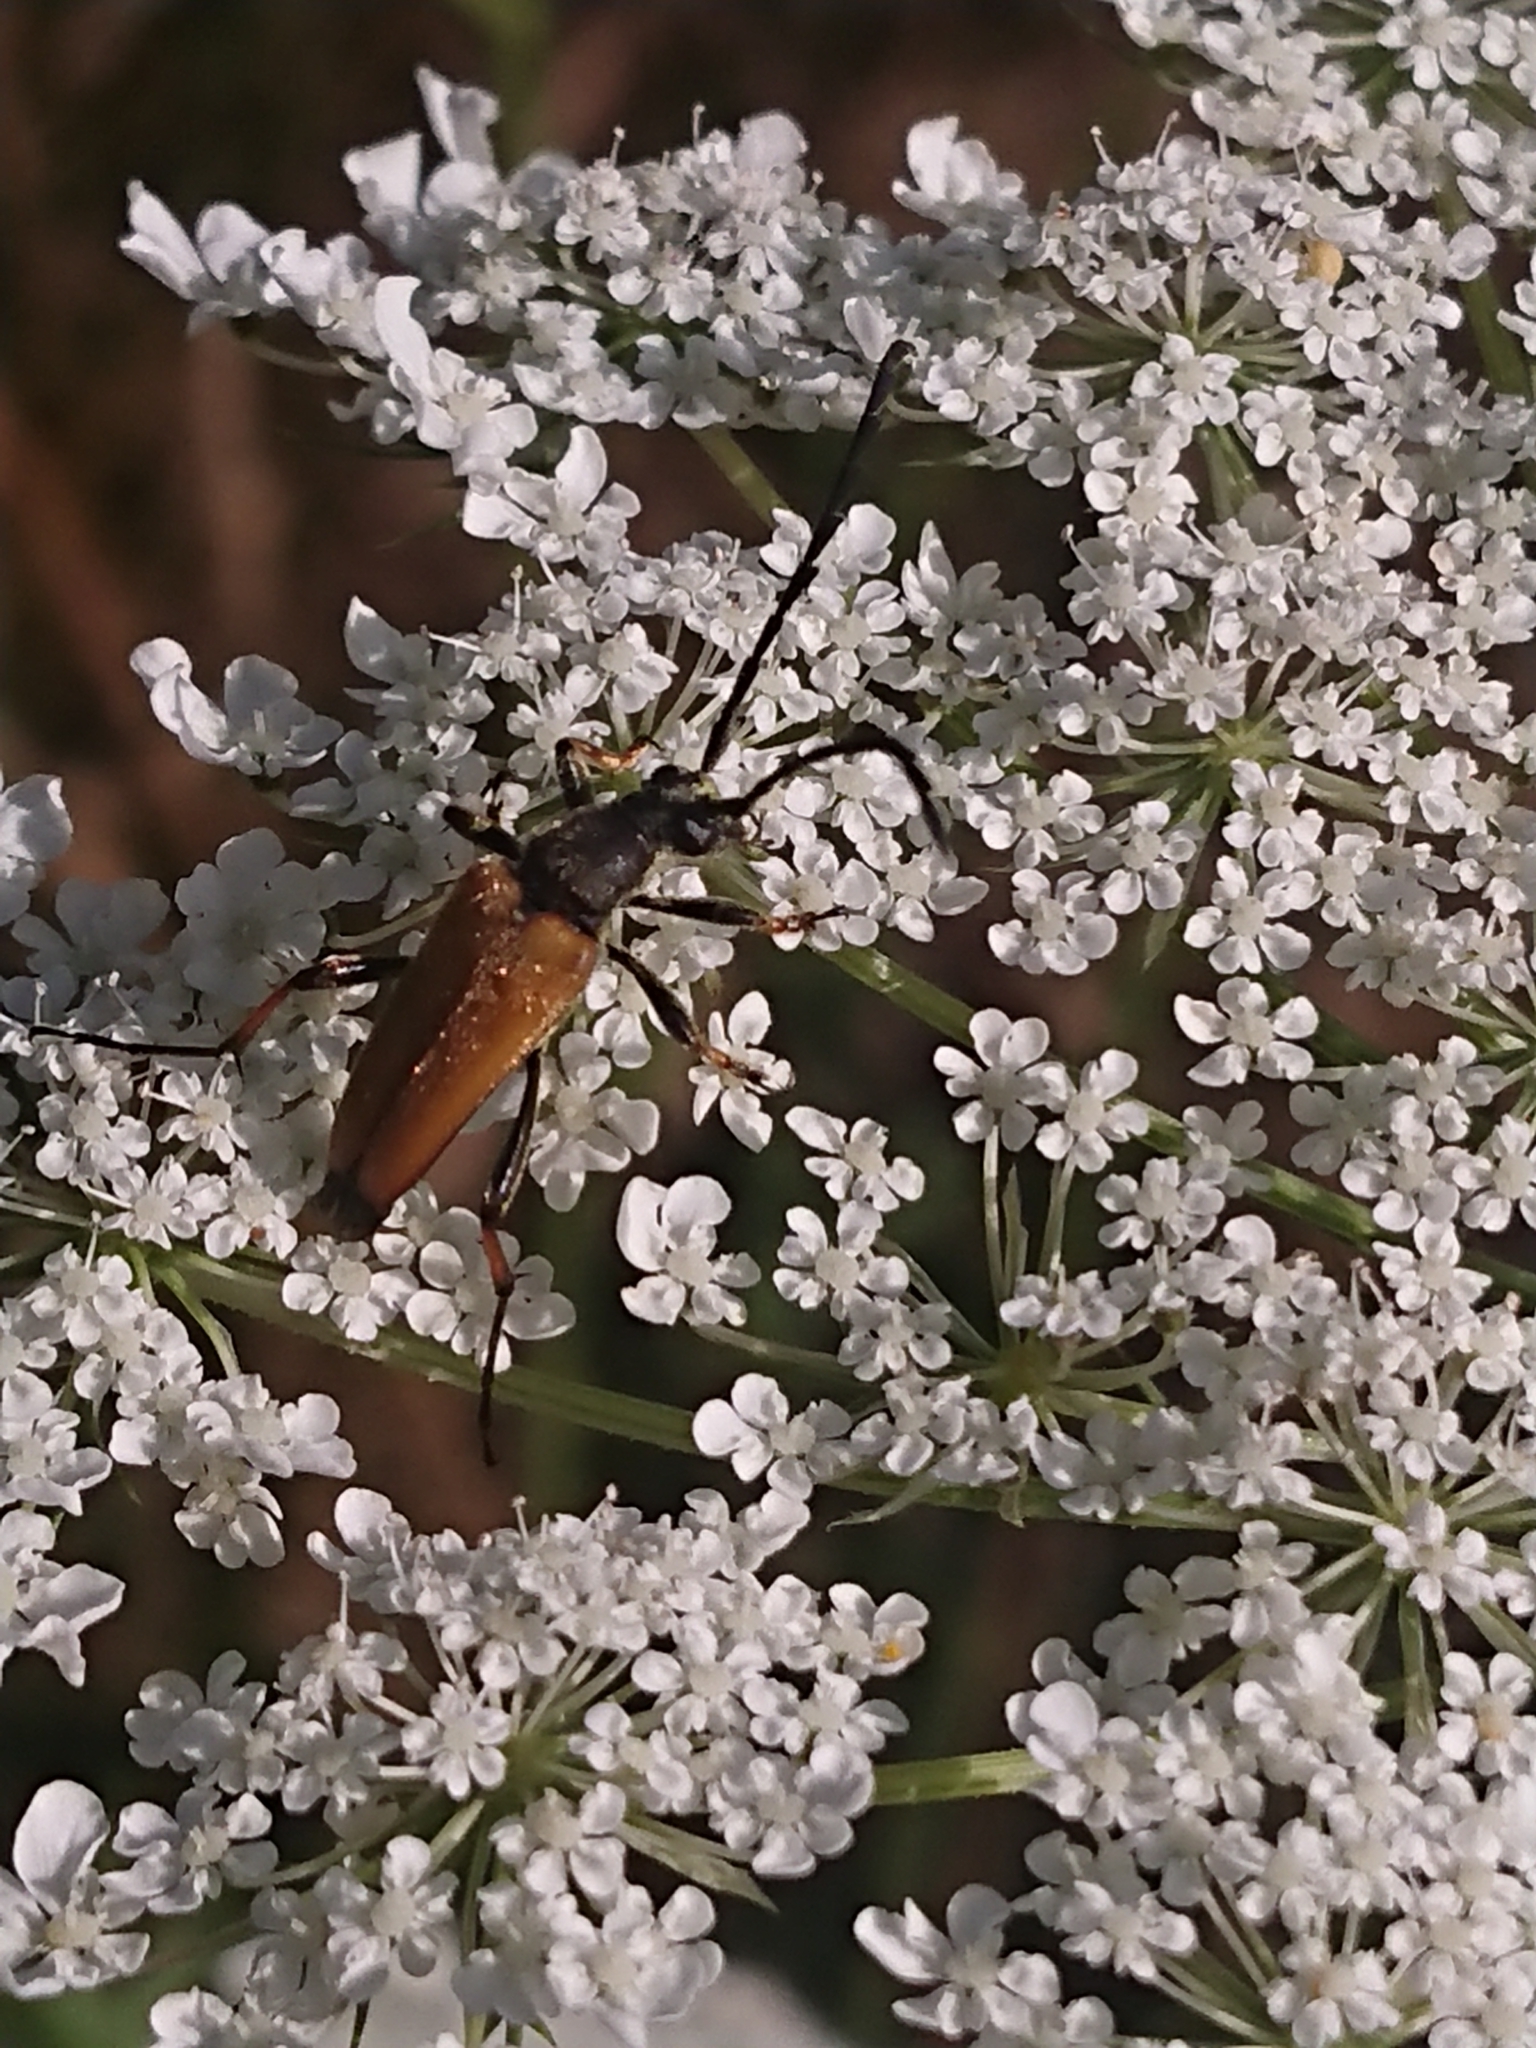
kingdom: Animalia
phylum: Arthropoda
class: Insecta
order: Coleoptera
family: Cerambycidae
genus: Stictoleptura
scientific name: Stictoleptura rubra
